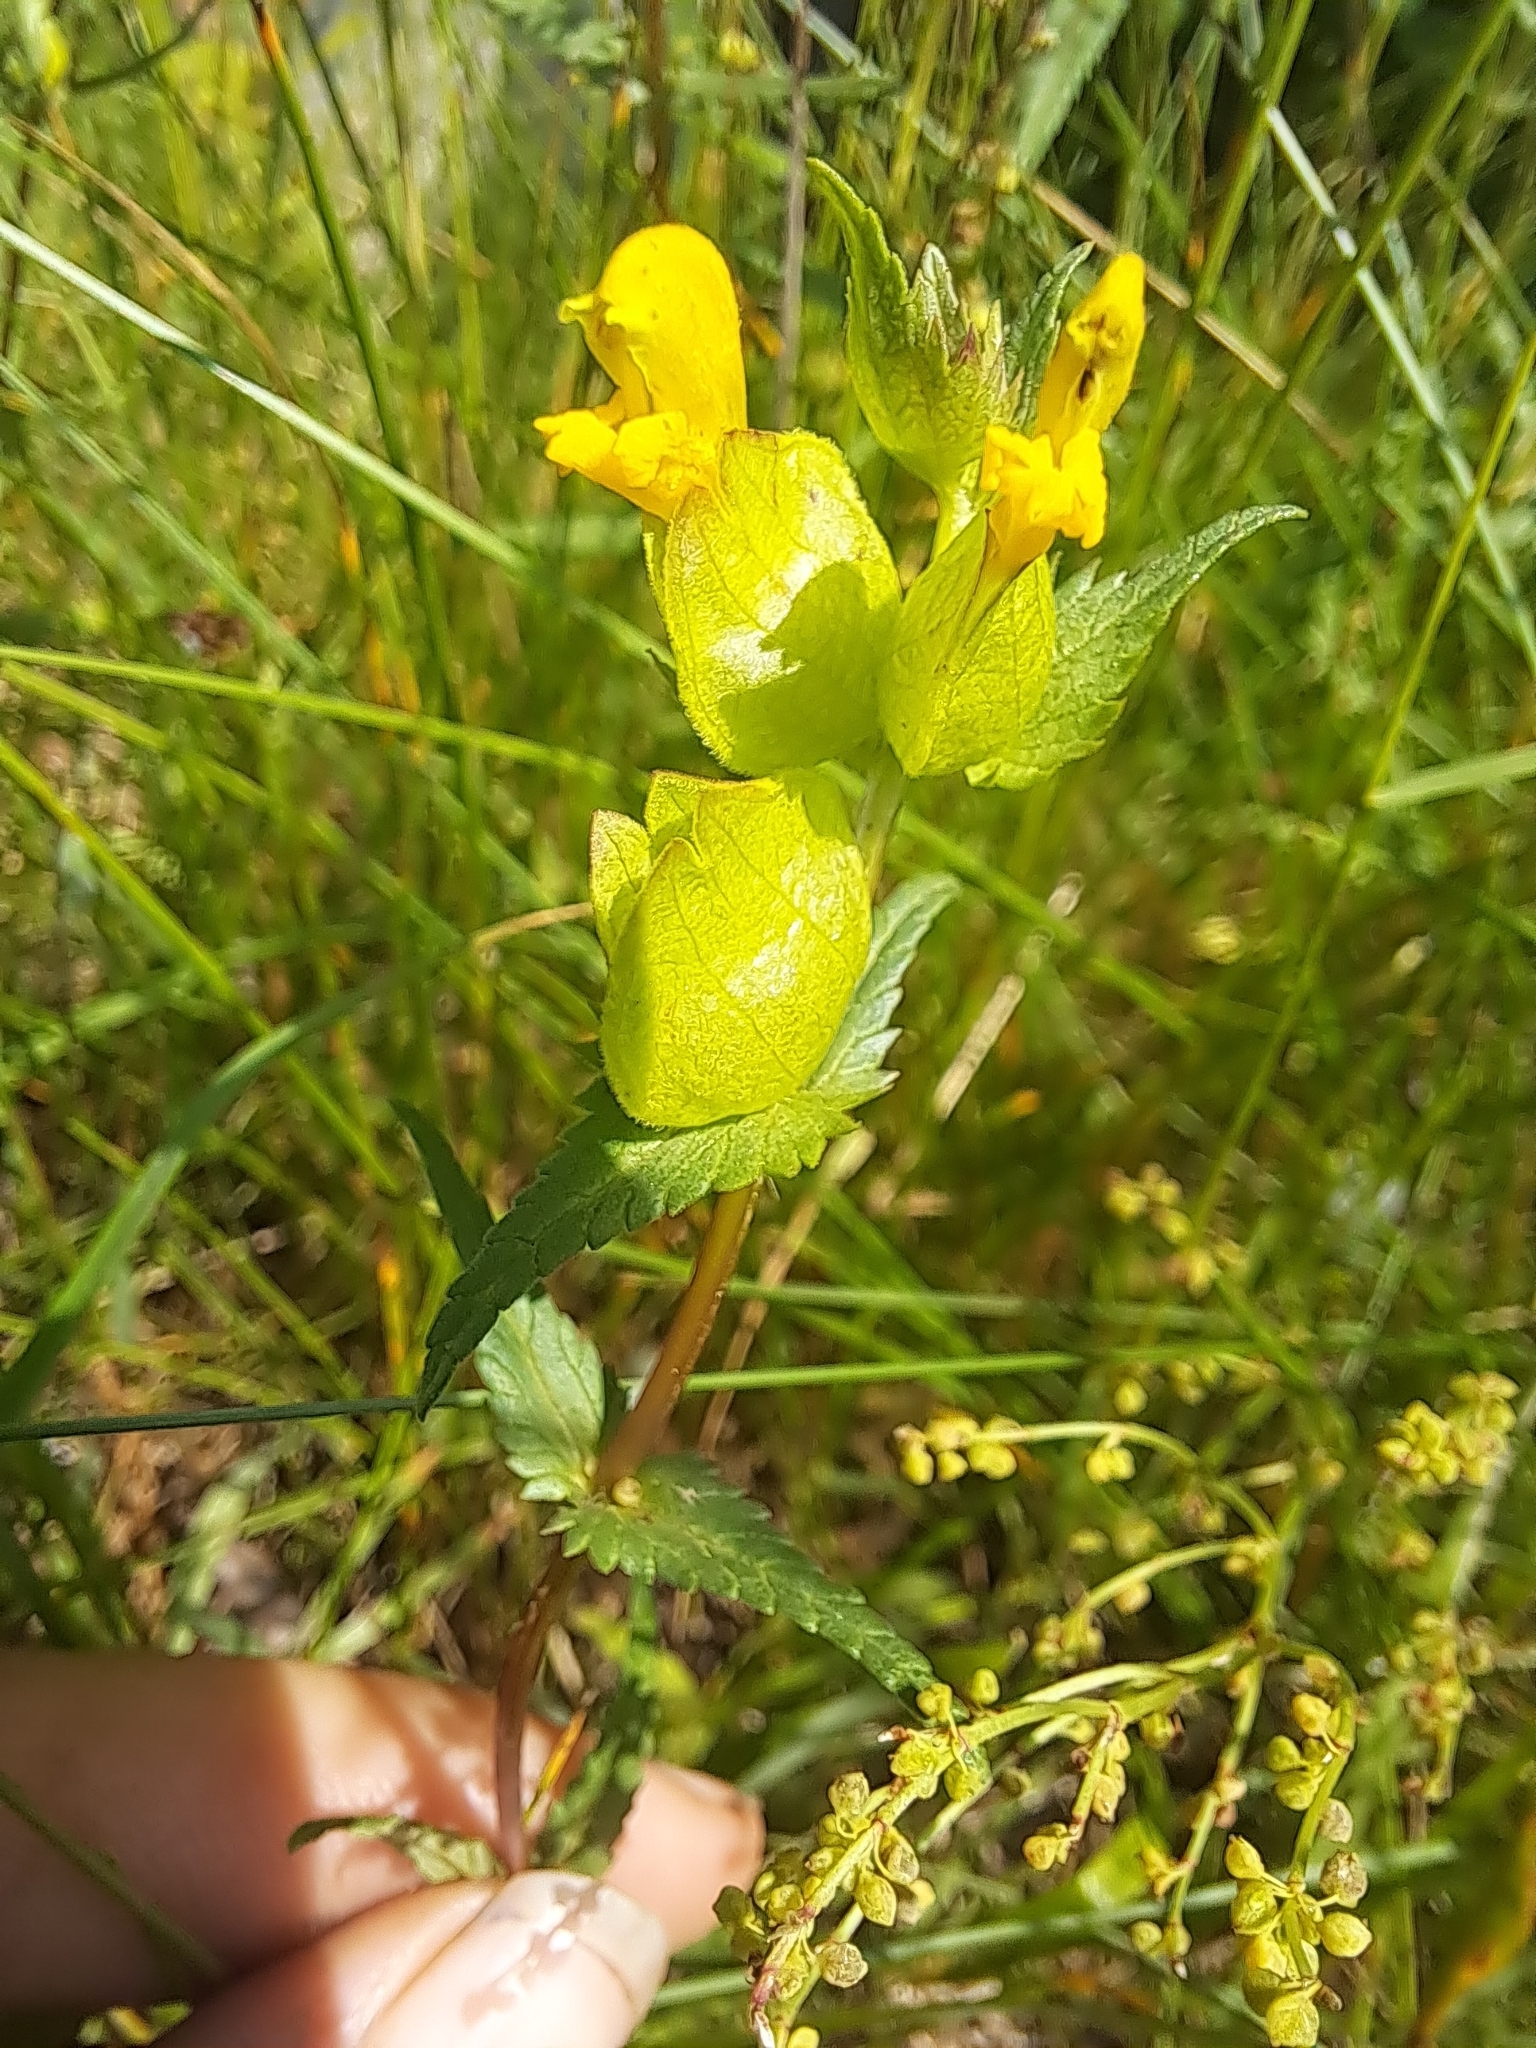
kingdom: Plantae
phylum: Tracheophyta
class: Magnoliopsida
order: Lamiales
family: Orobanchaceae
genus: Rhinanthus
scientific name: Rhinanthus minor
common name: Yellow-rattle
